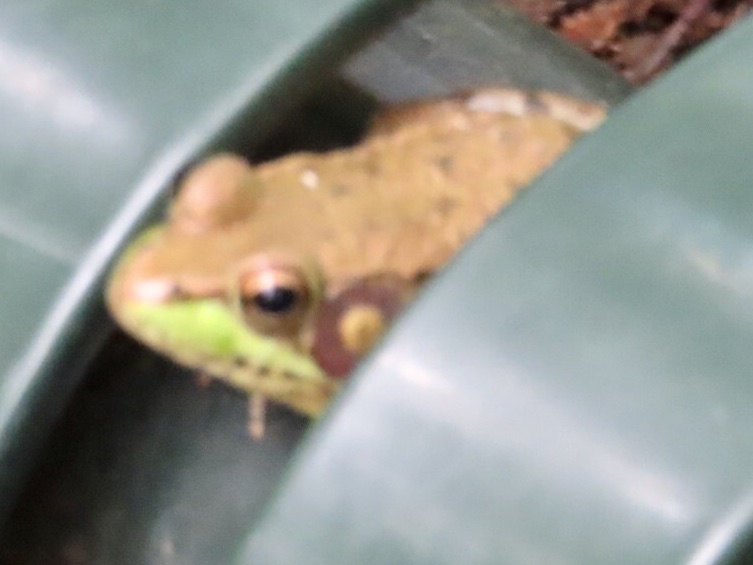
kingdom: Animalia
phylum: Chordata
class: Amphibia
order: Anura
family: Ranidae
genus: Lithobates
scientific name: Lithobates clamitans
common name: Green frog
